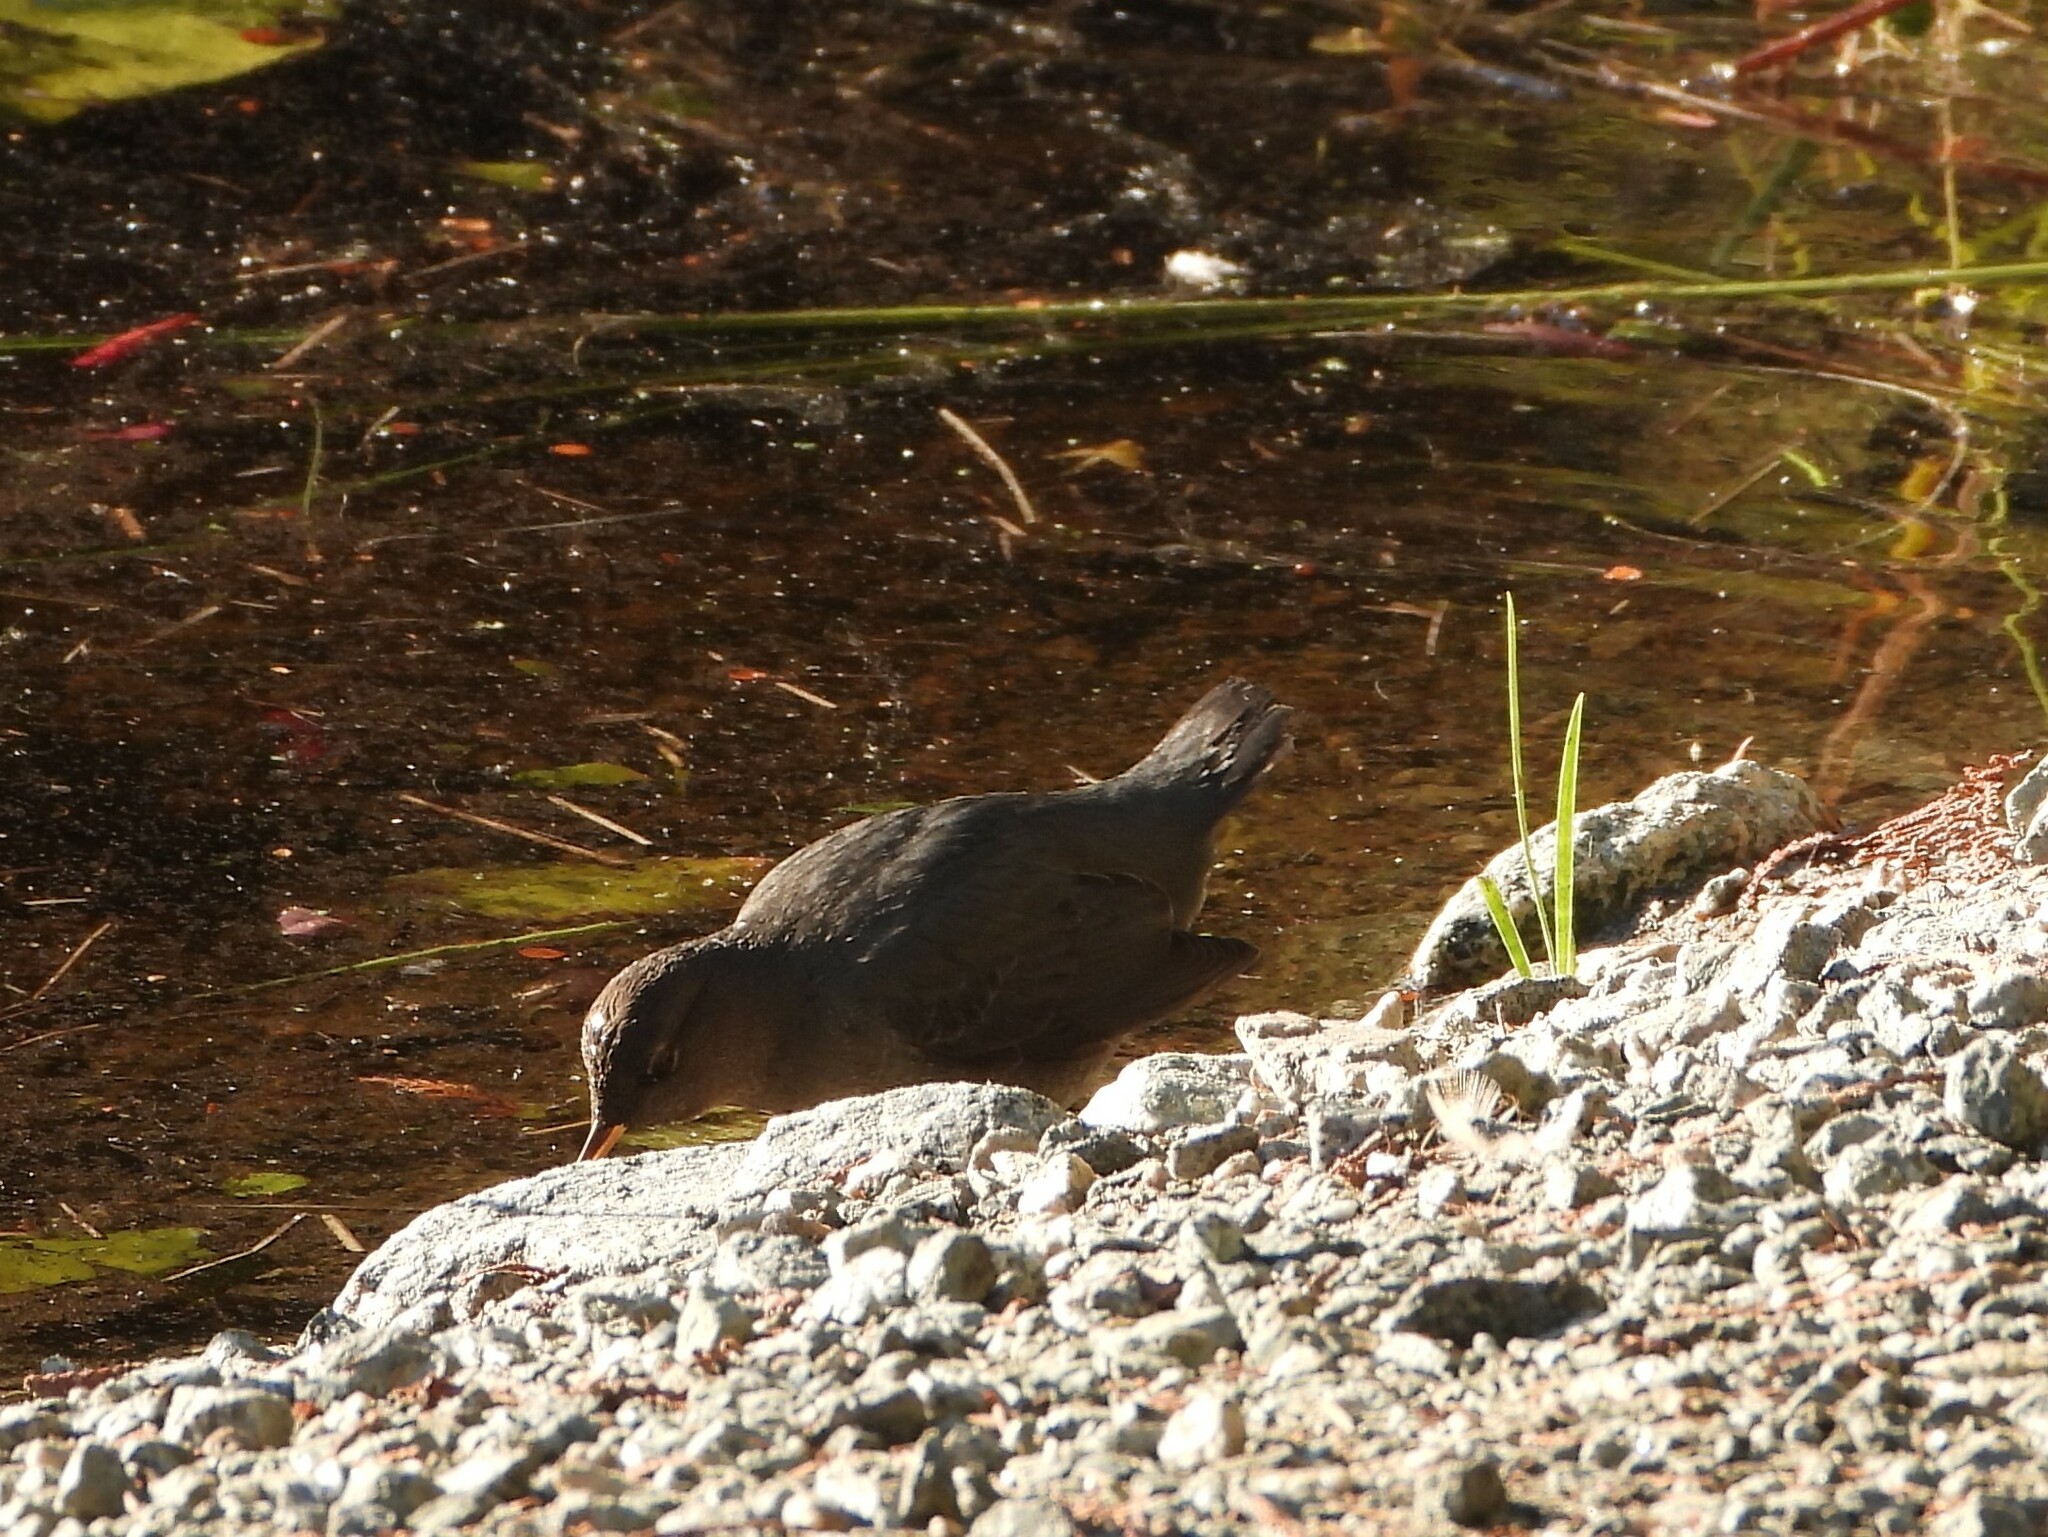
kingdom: Animalia
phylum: Chordata
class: Aves
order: Passeriformes
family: Cinclidae
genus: Cinclus
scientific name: Cinclus mexicanus
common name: American dipper
